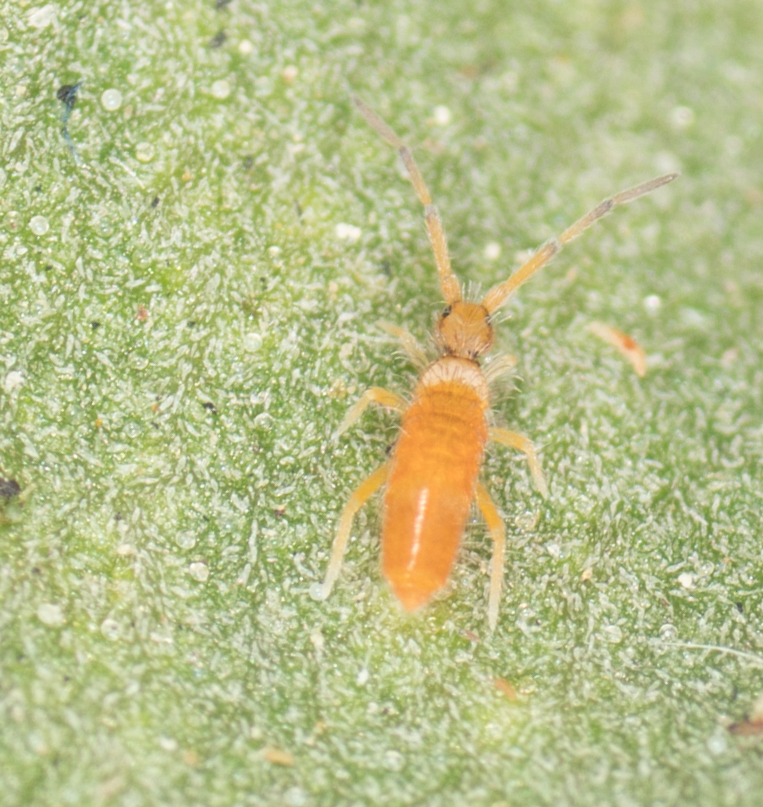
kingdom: Animalia
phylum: Arthropoda
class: Collembola
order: Entomobryomorpha
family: Entomobryidae
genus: Entomobrya
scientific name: Entomobrya atrocincta
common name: Springtail
